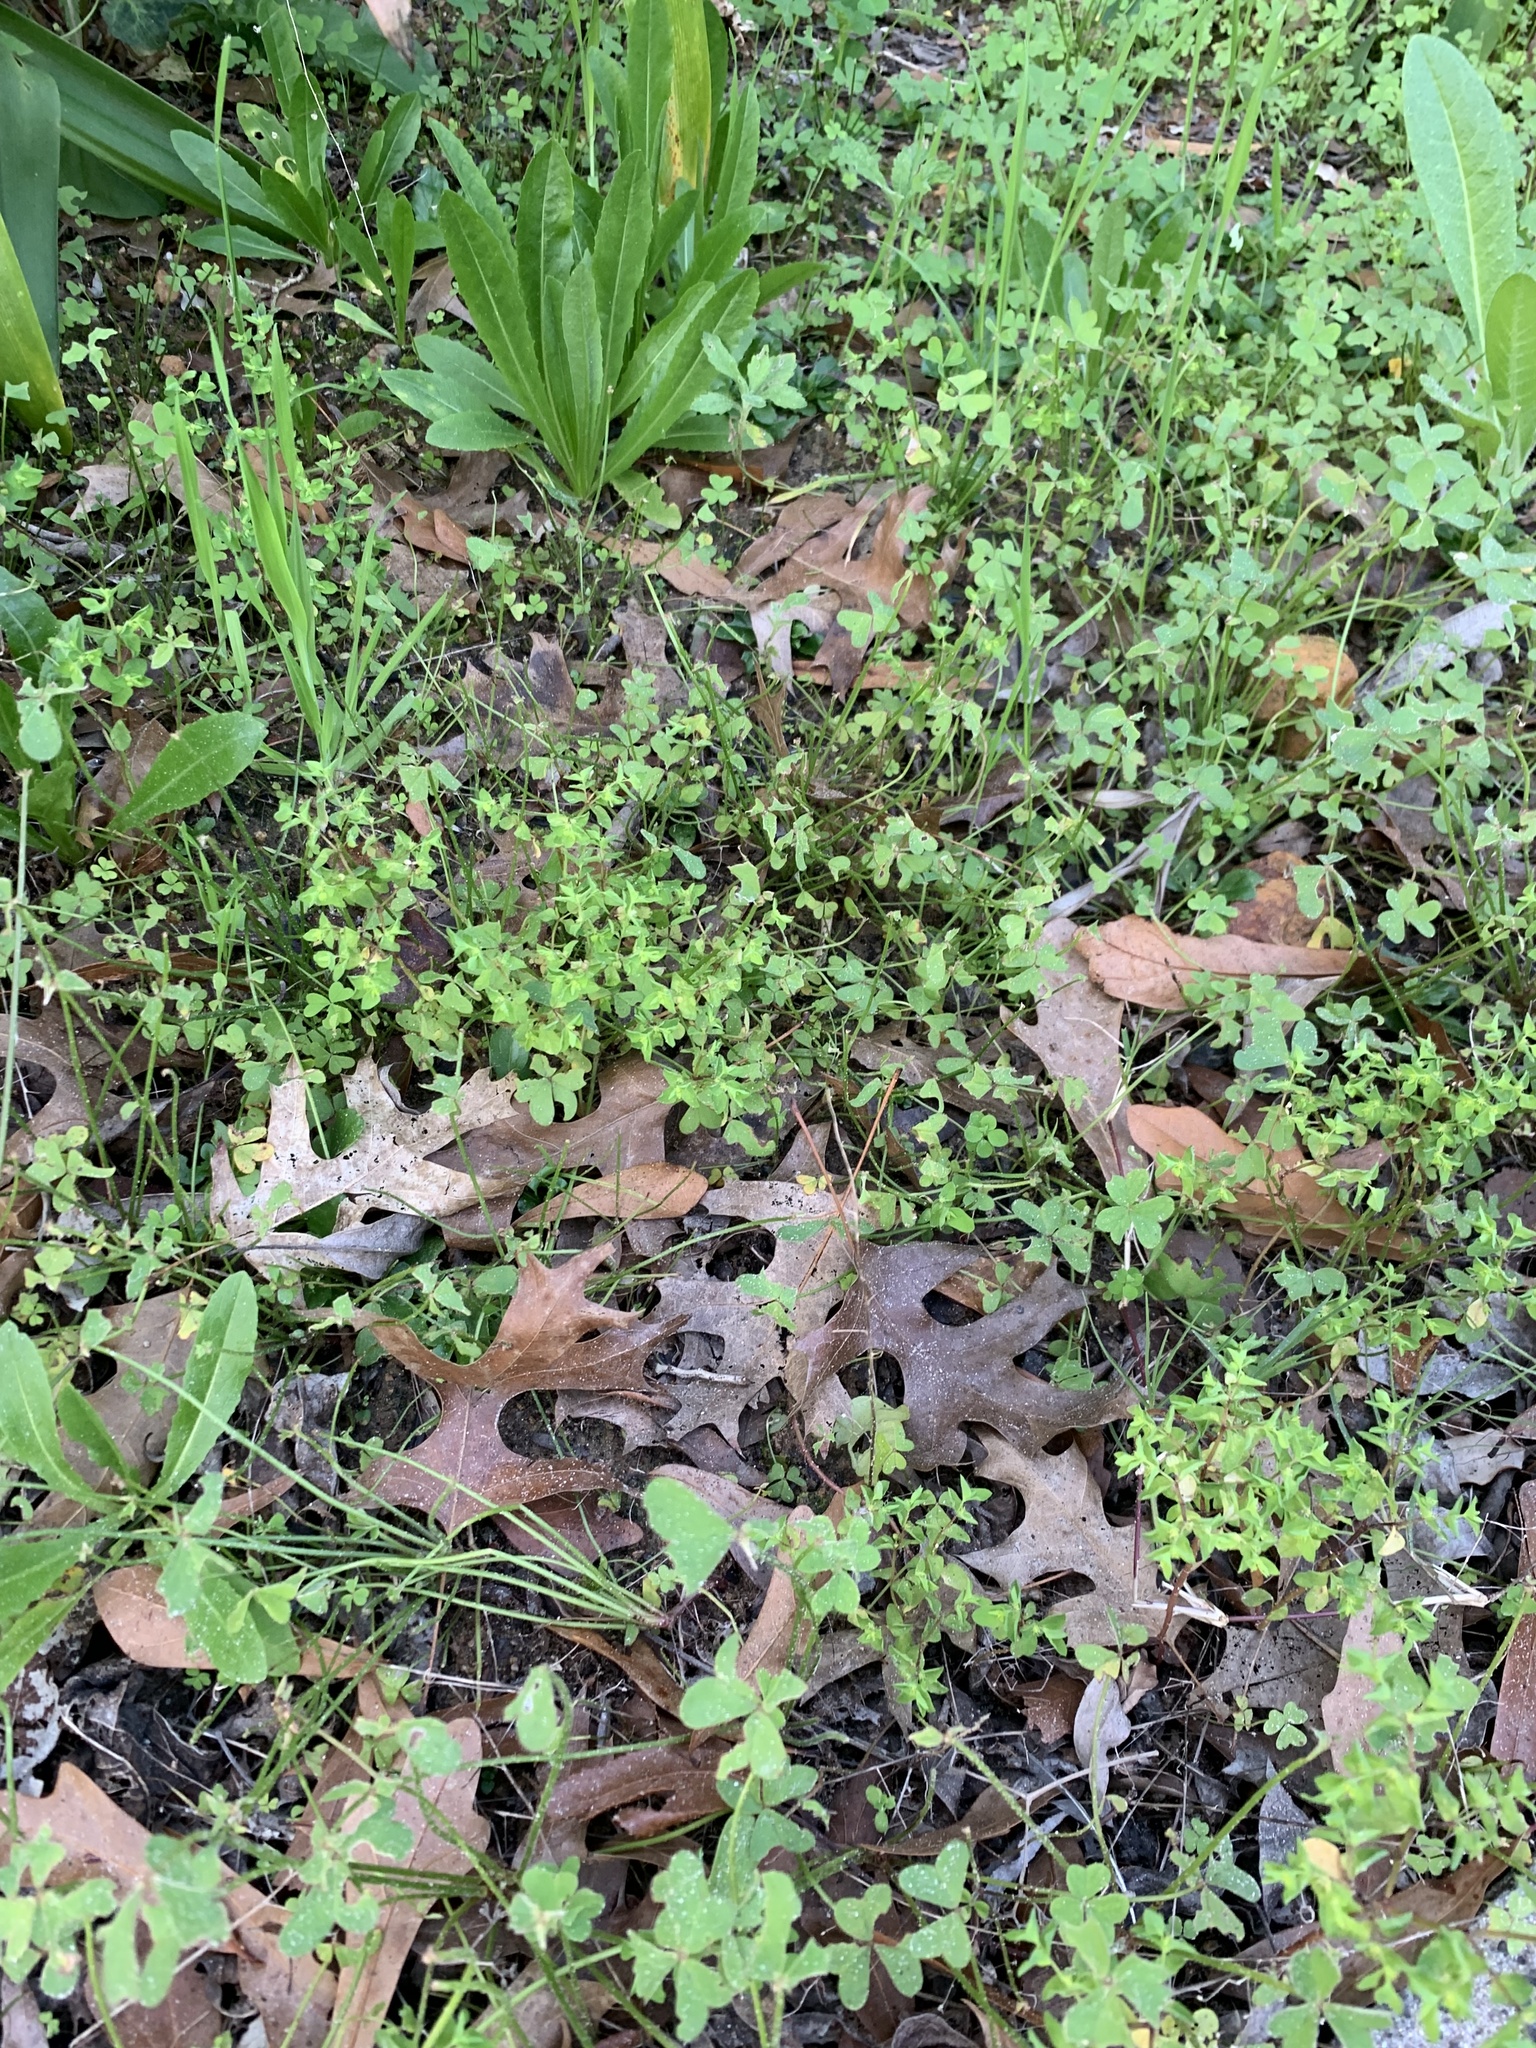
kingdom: Plantae
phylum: Tracheophyta
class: Magnoliopsida
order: Malpighiales
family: Euphorbiaceae
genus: Euphorbia
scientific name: Euphorbia peplus
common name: Petty spurge
